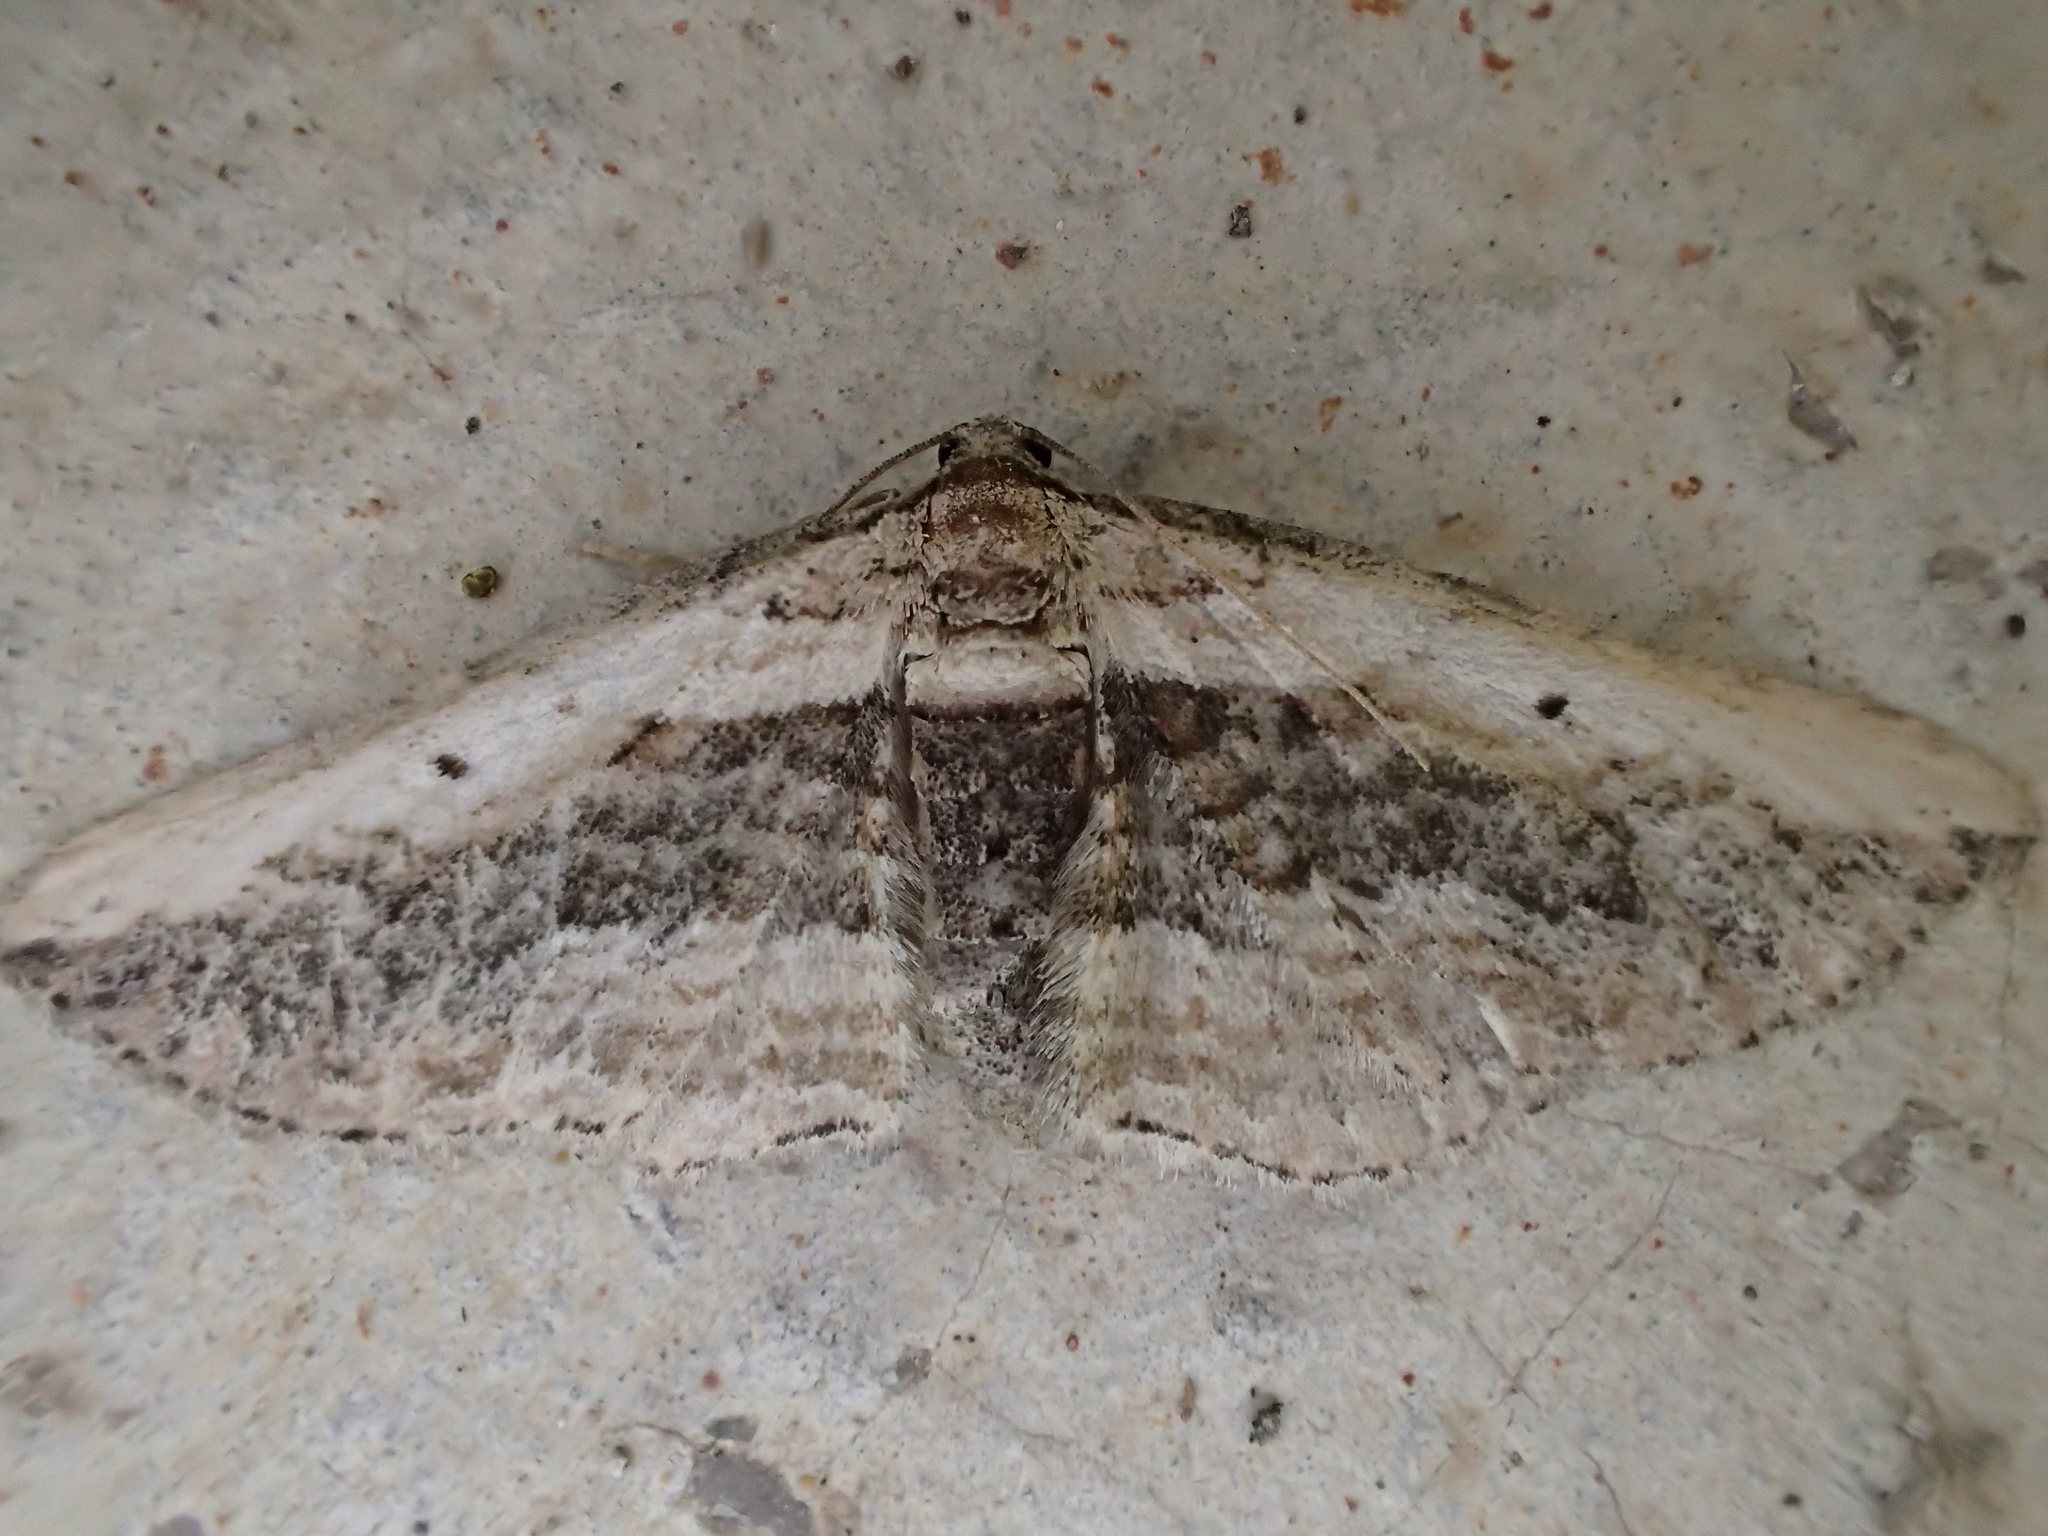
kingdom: Animalia
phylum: Arthropoda
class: Insecta
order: Lepidoptera
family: Geometridae
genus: Horisme
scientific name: Horisme vitalbata
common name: Small waved umber
